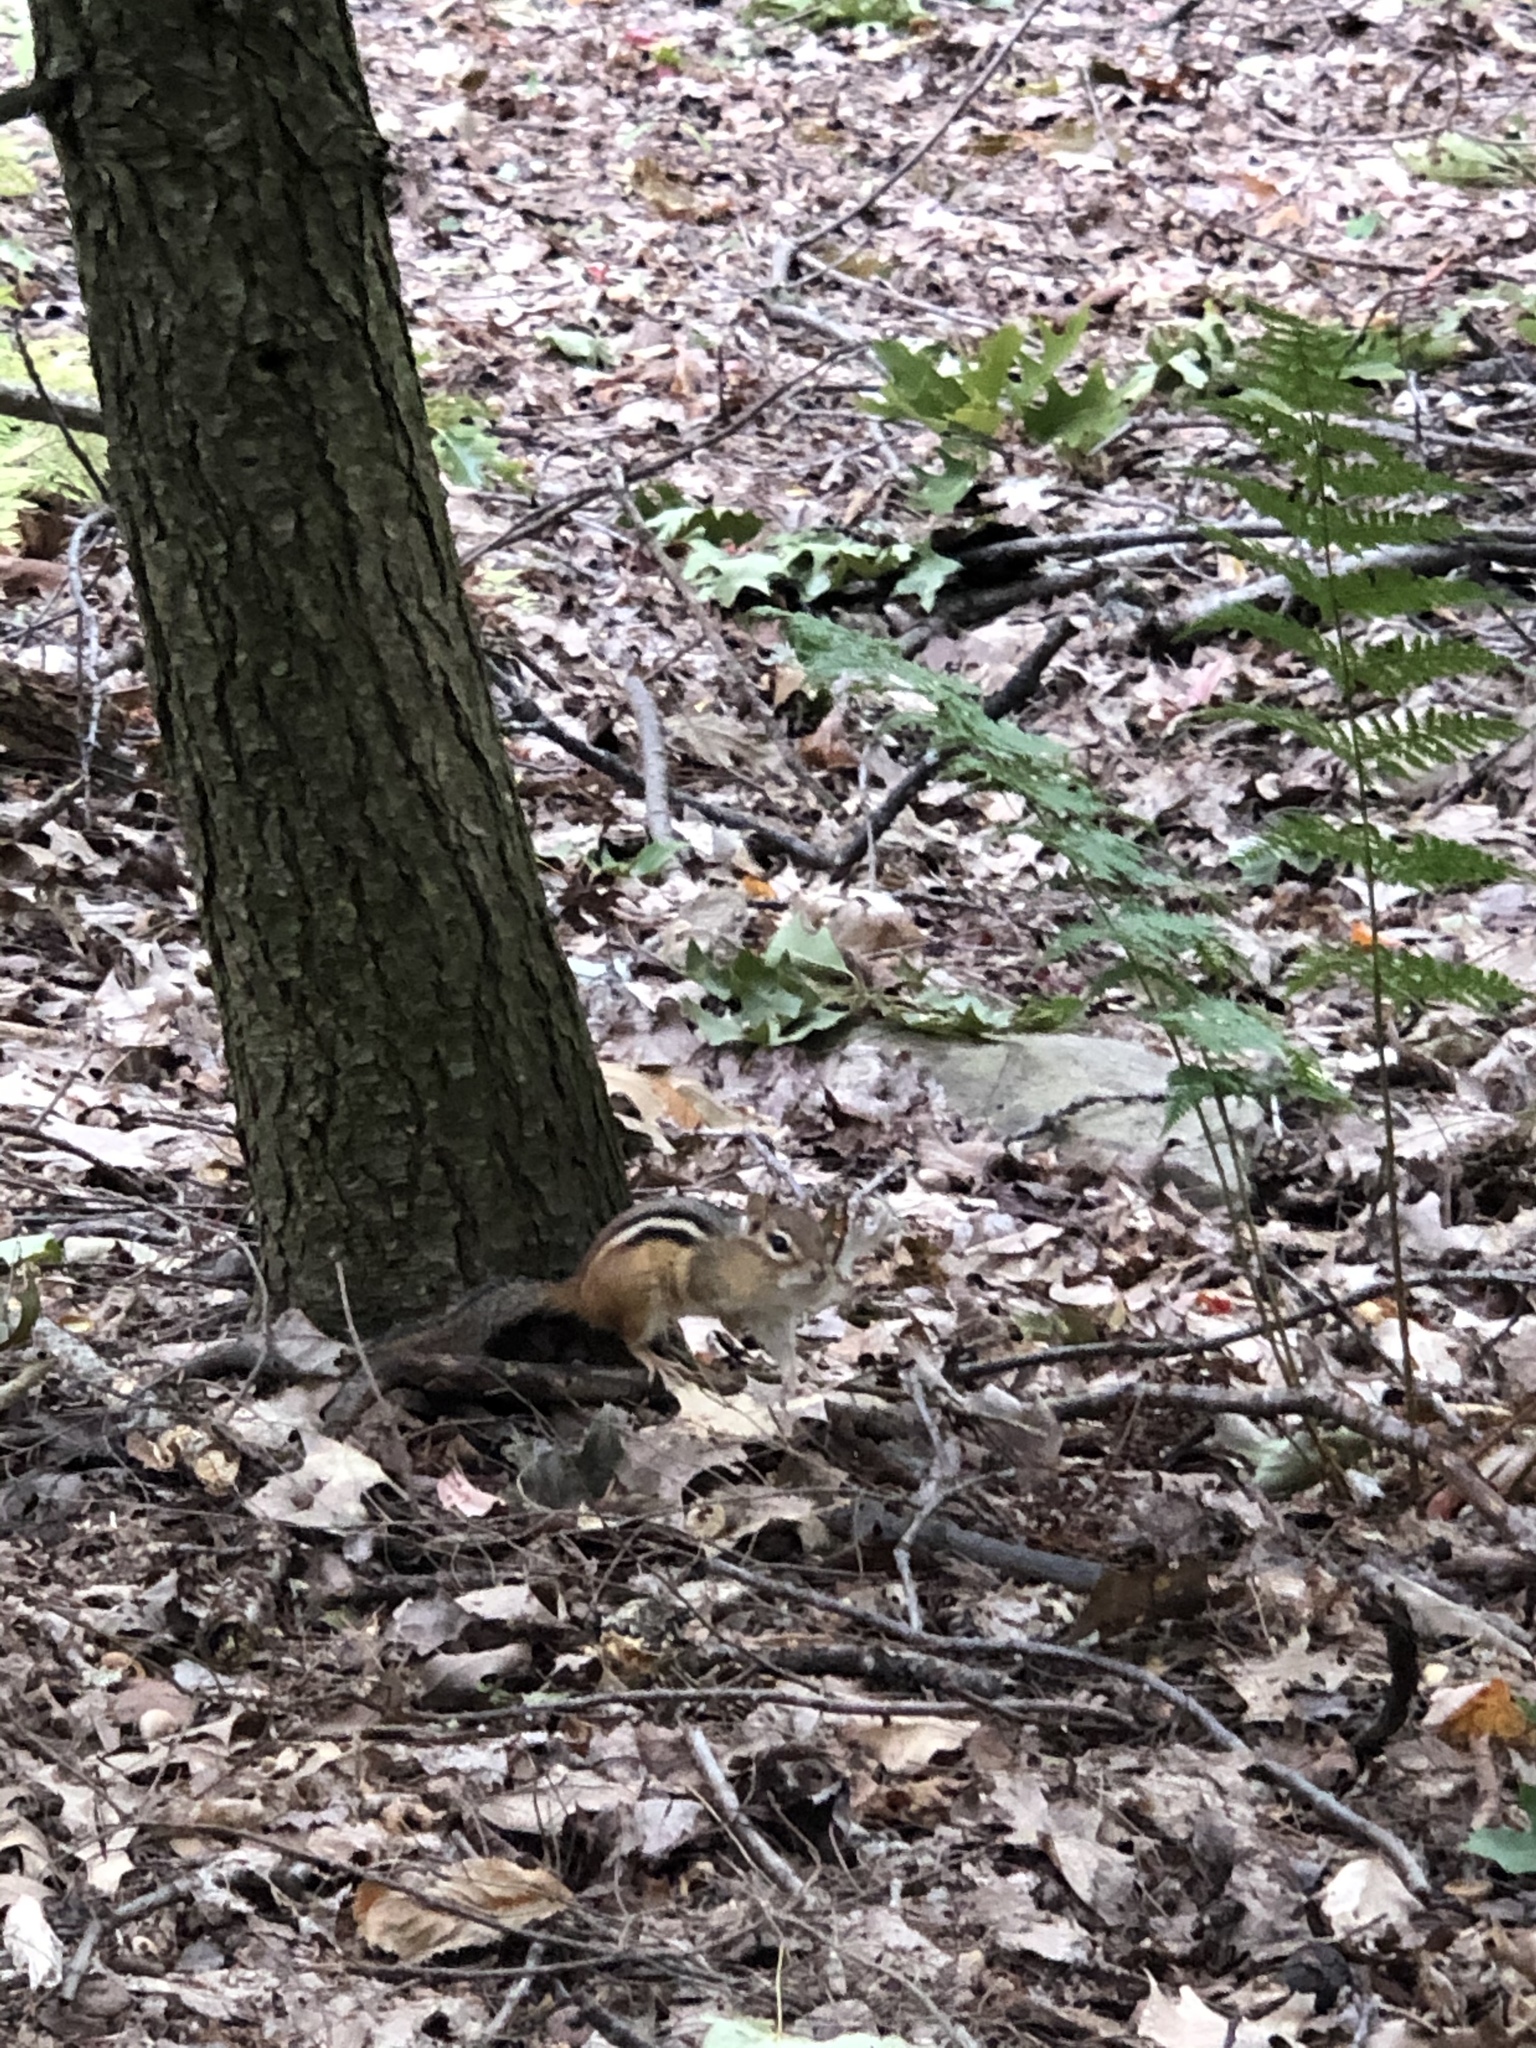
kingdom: Animalia
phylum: Chordata
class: Mammalia
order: Rodentia
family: Sciuridae
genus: Tamias
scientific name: Tamias striatus
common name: Eastern chipmunk
